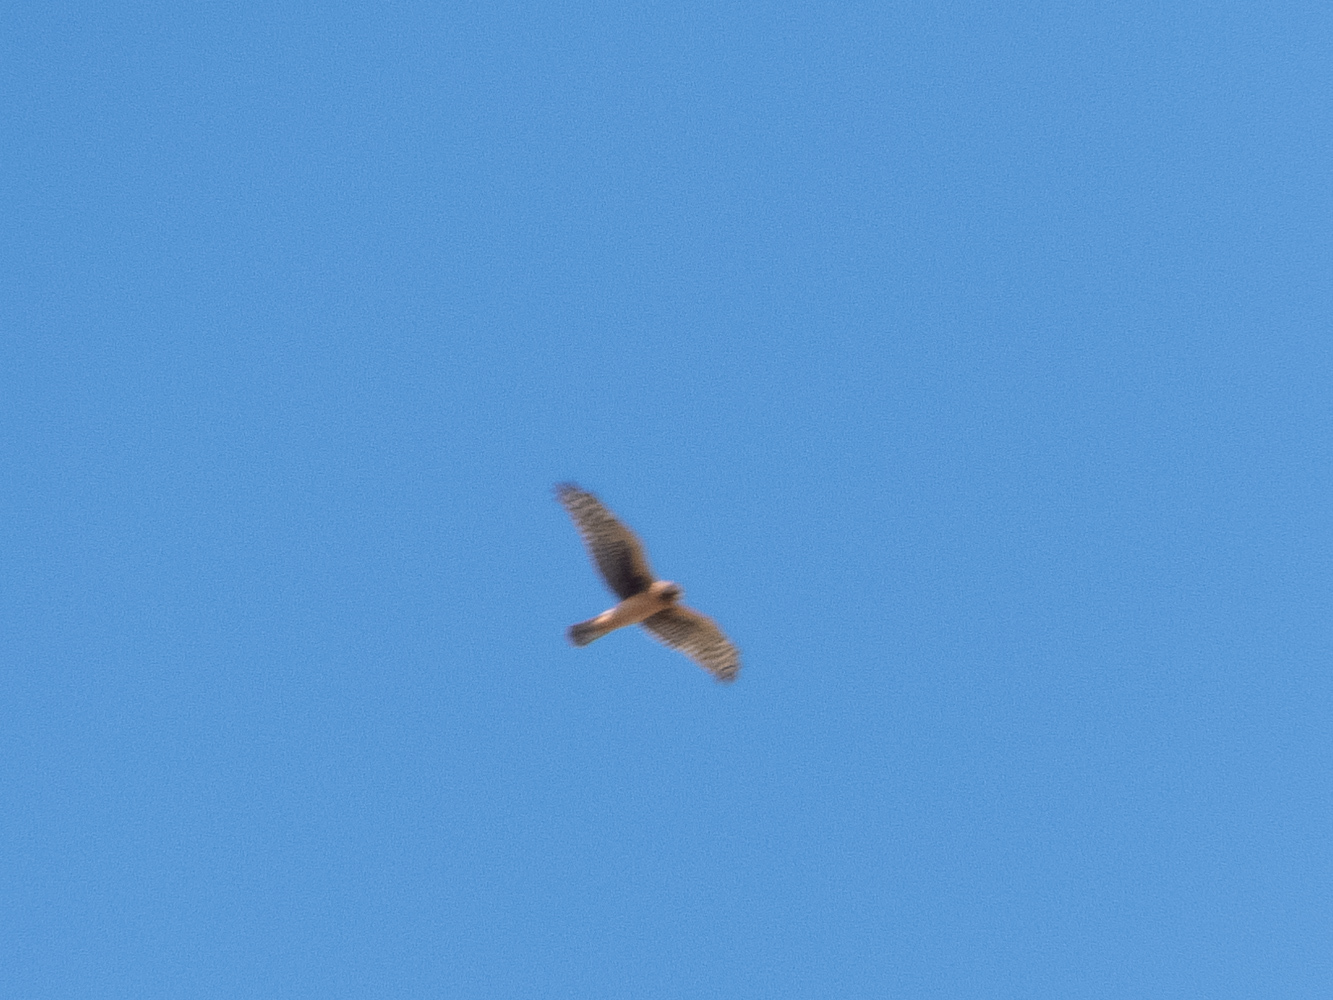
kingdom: Animalia
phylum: Chordata
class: Aves
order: Accipitriformes
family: Accipitridae
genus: Circus
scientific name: Circus cyaneus
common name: Hen harrier
